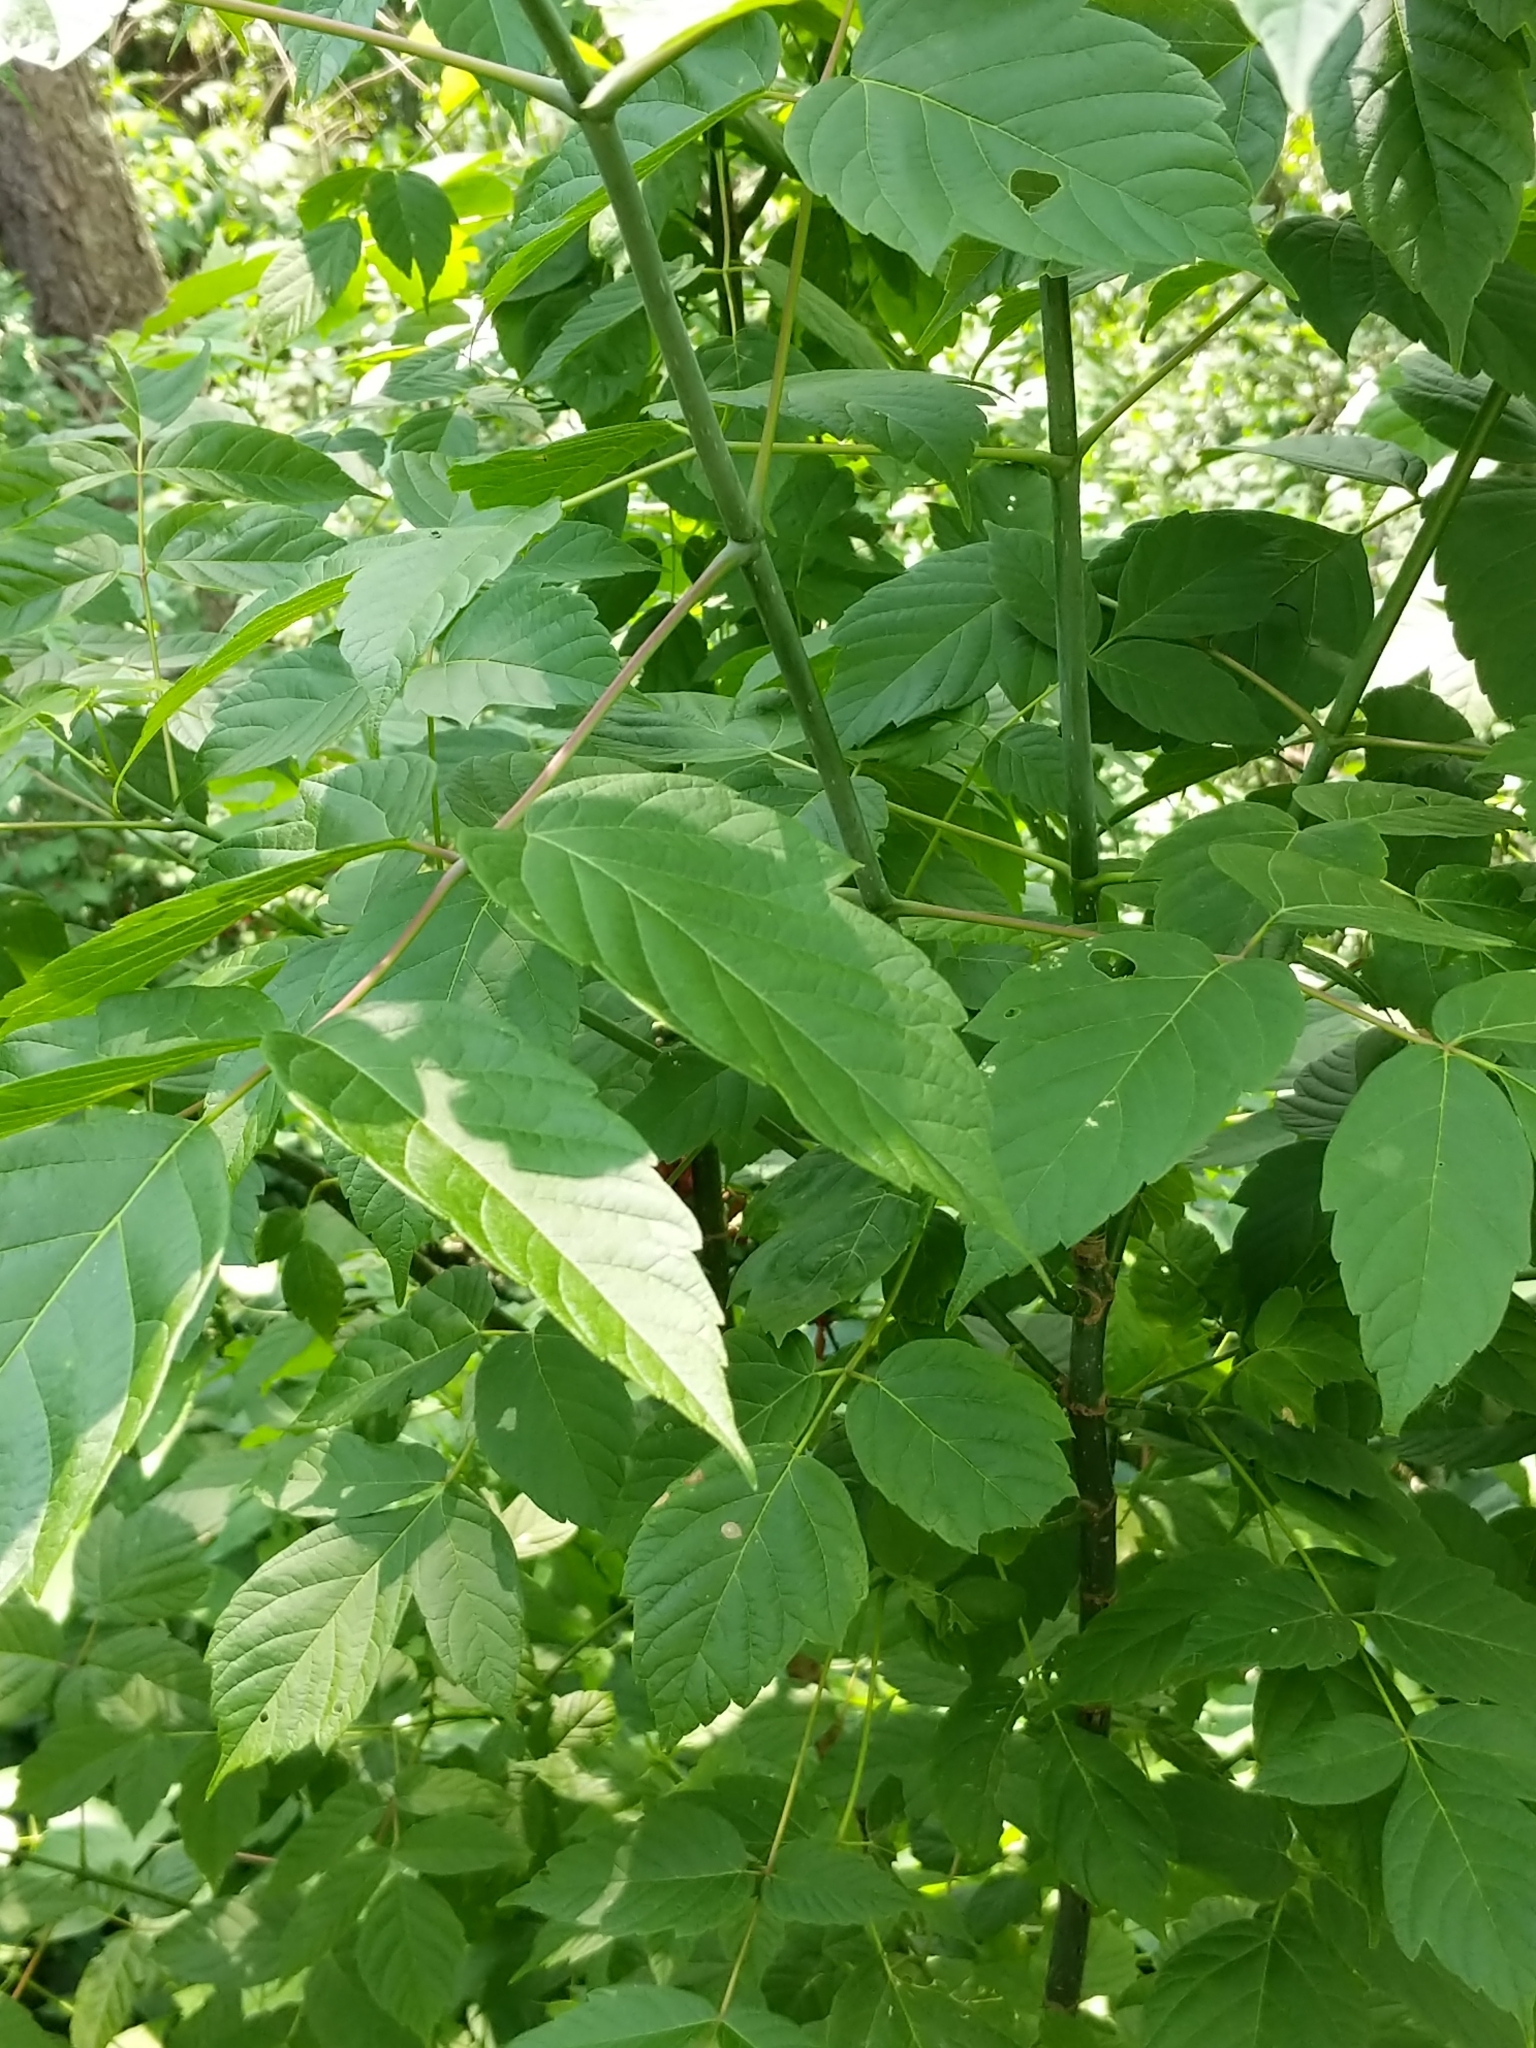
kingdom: Plantae
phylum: Tracheophyta
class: Magnoliopsida
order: Sapindales
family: Sapindaceae
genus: Acer
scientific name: Acer negundo
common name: Ashleaf maple
